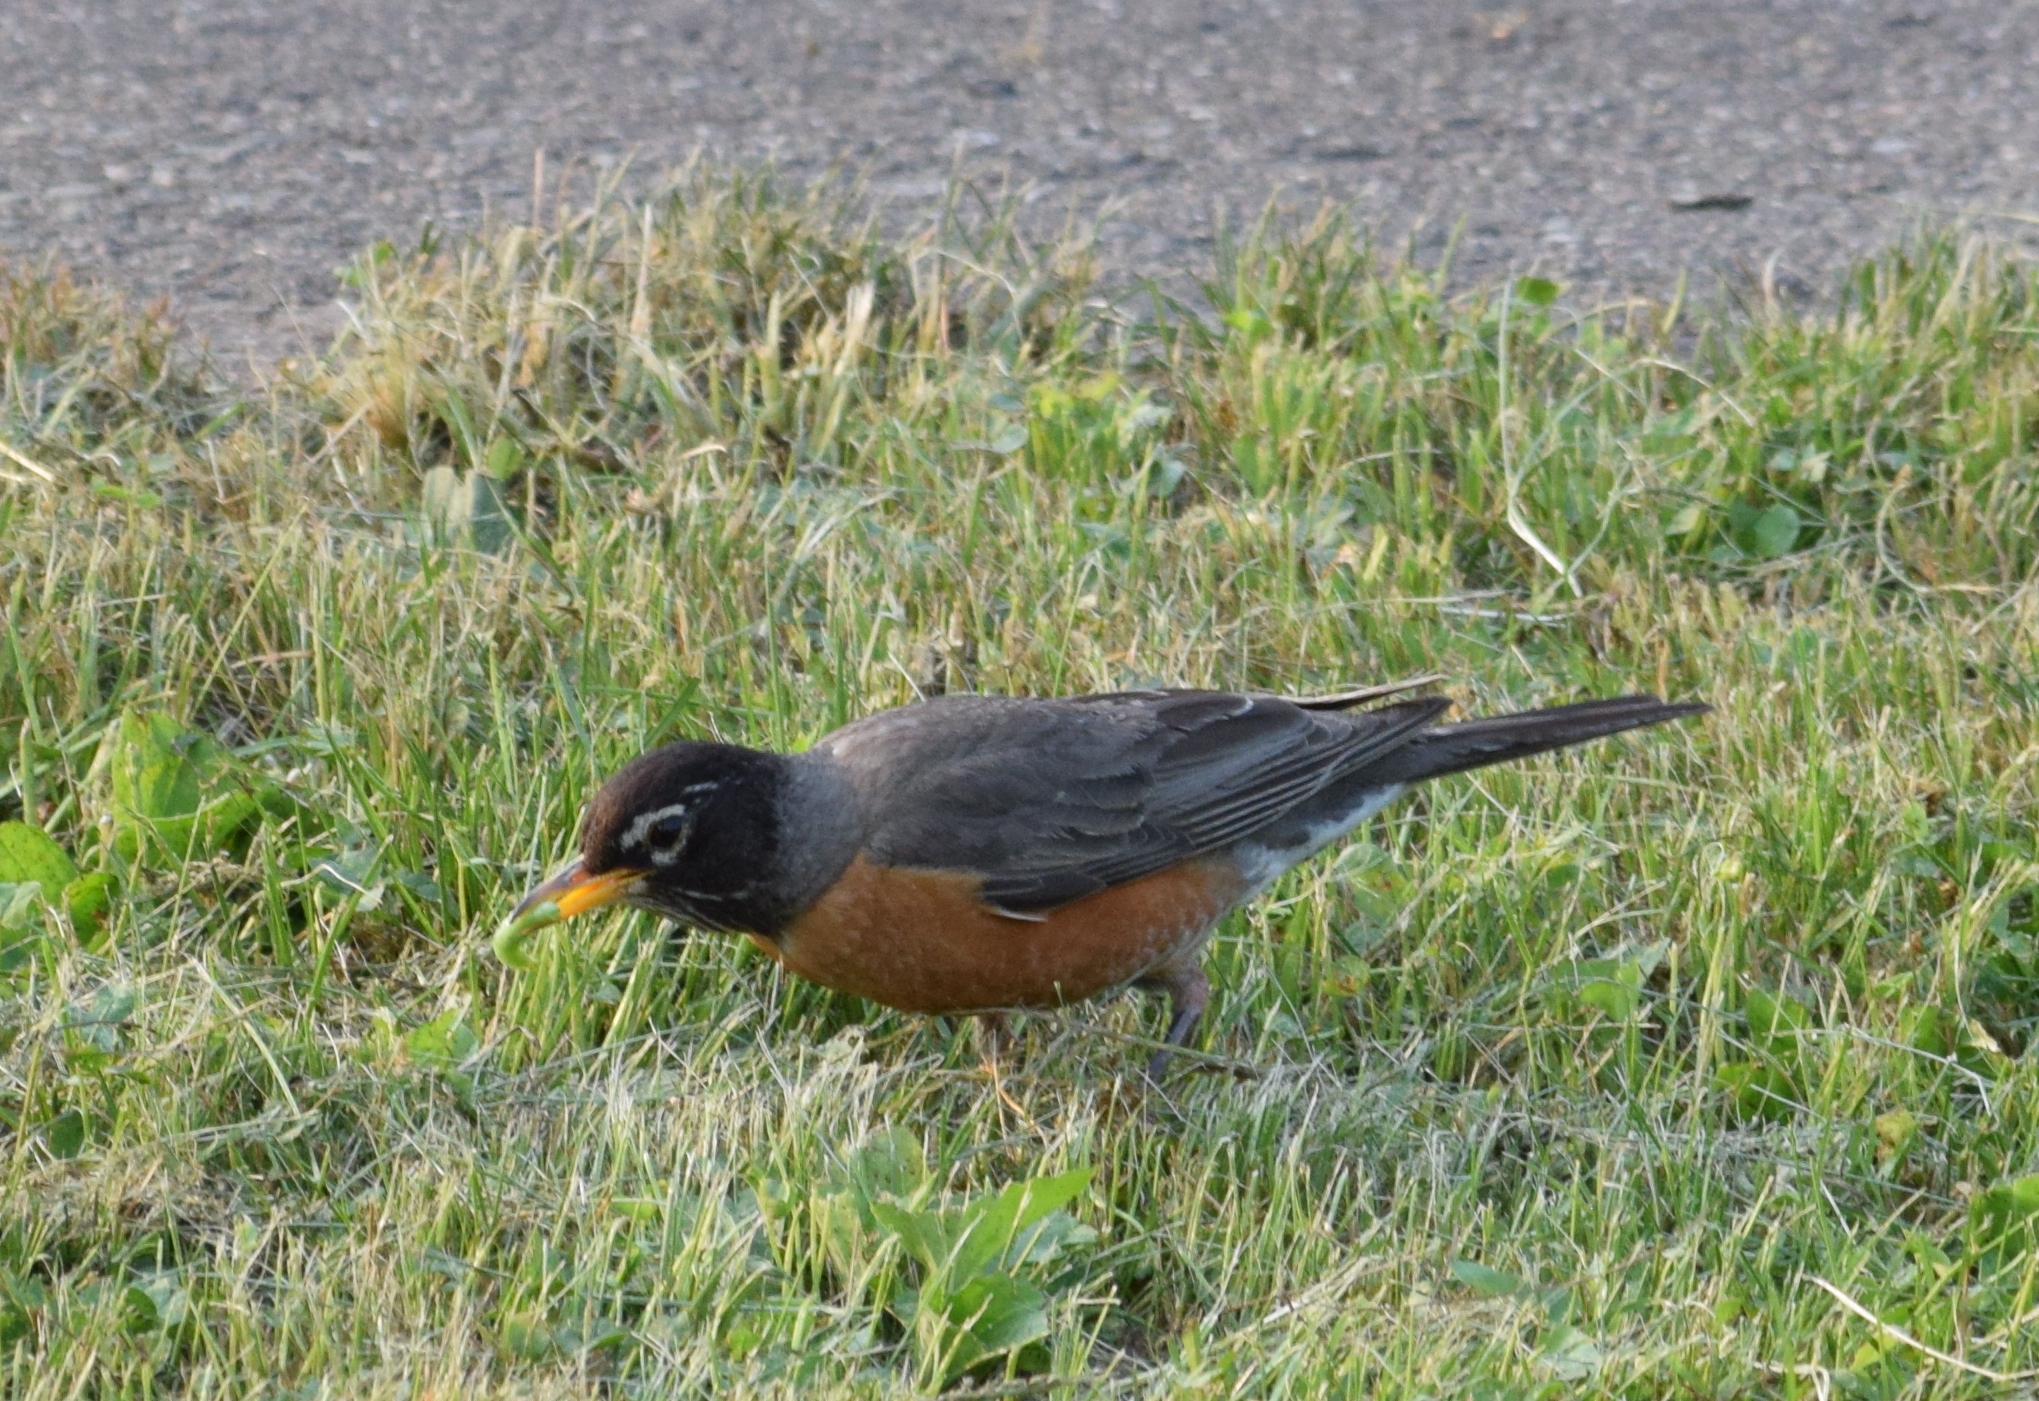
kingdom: Animalia
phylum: Chordata
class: Aves
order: Passeriformes
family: Turdidae
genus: Turdus
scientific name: Turdus migratorius
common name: American robin
